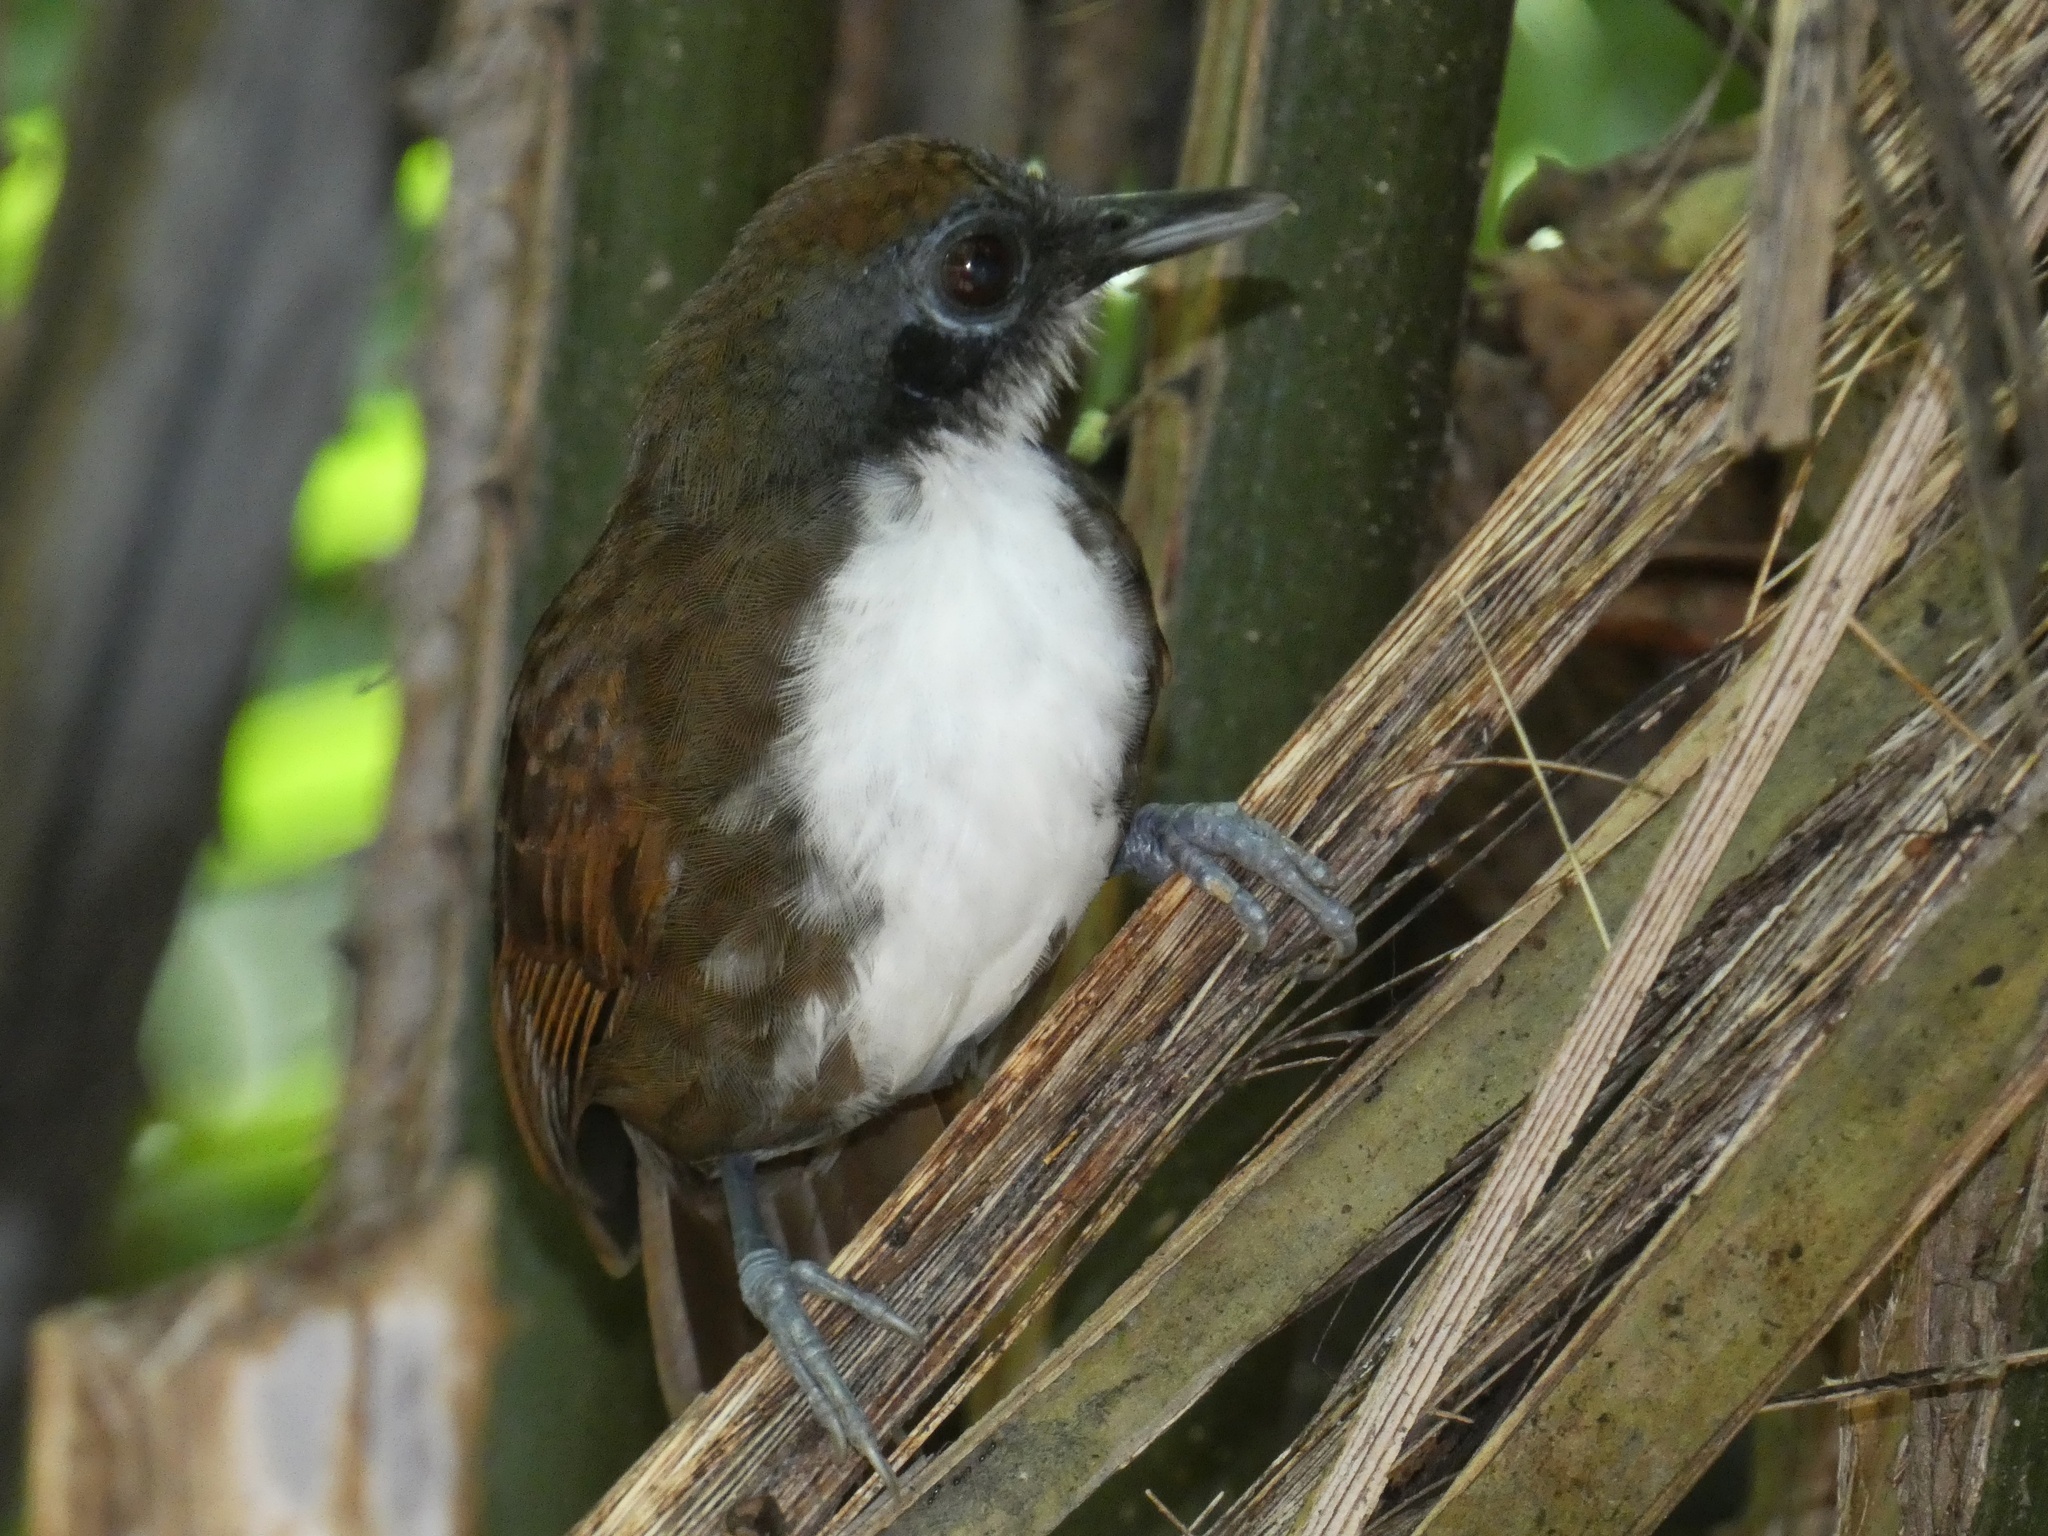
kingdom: Animalia
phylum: Chordata
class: Aves
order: Passeriformes
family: Thamnophilidae
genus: Gymnopithys
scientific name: Gymnopithys leucaspis
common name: White-cheeked antbird
